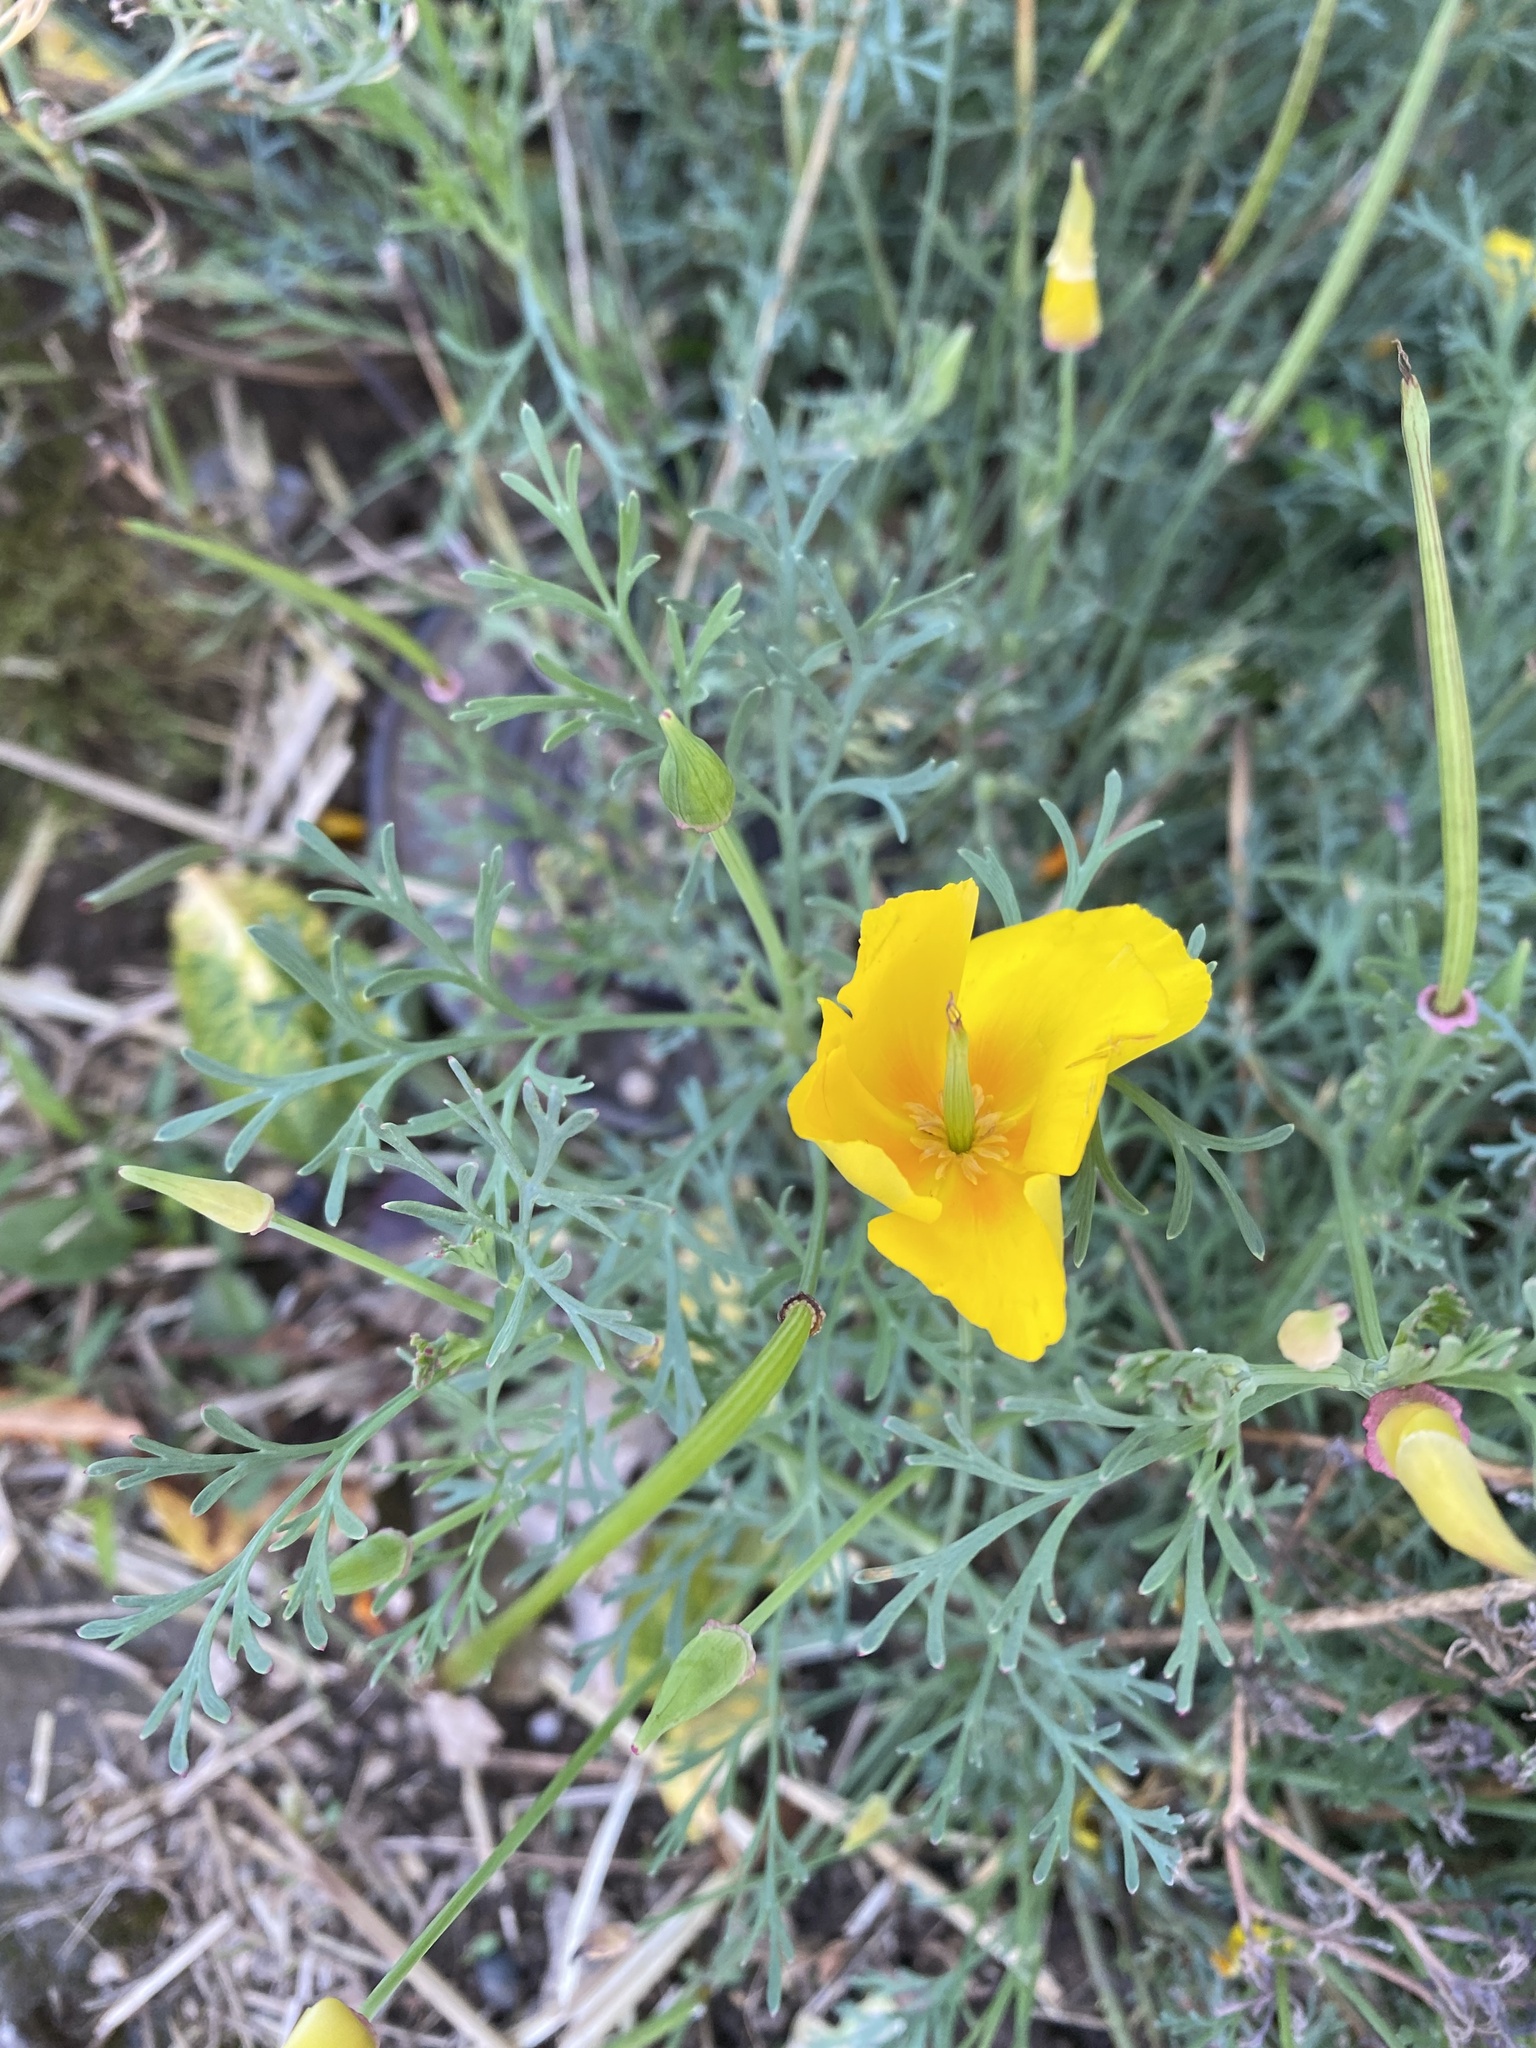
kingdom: Plantae
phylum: Tracheophyta
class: Magnoliopsida
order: Ranunculales
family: Papaveraceae
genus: Eschscholzia
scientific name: Eschscholzia californica
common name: California poppy
